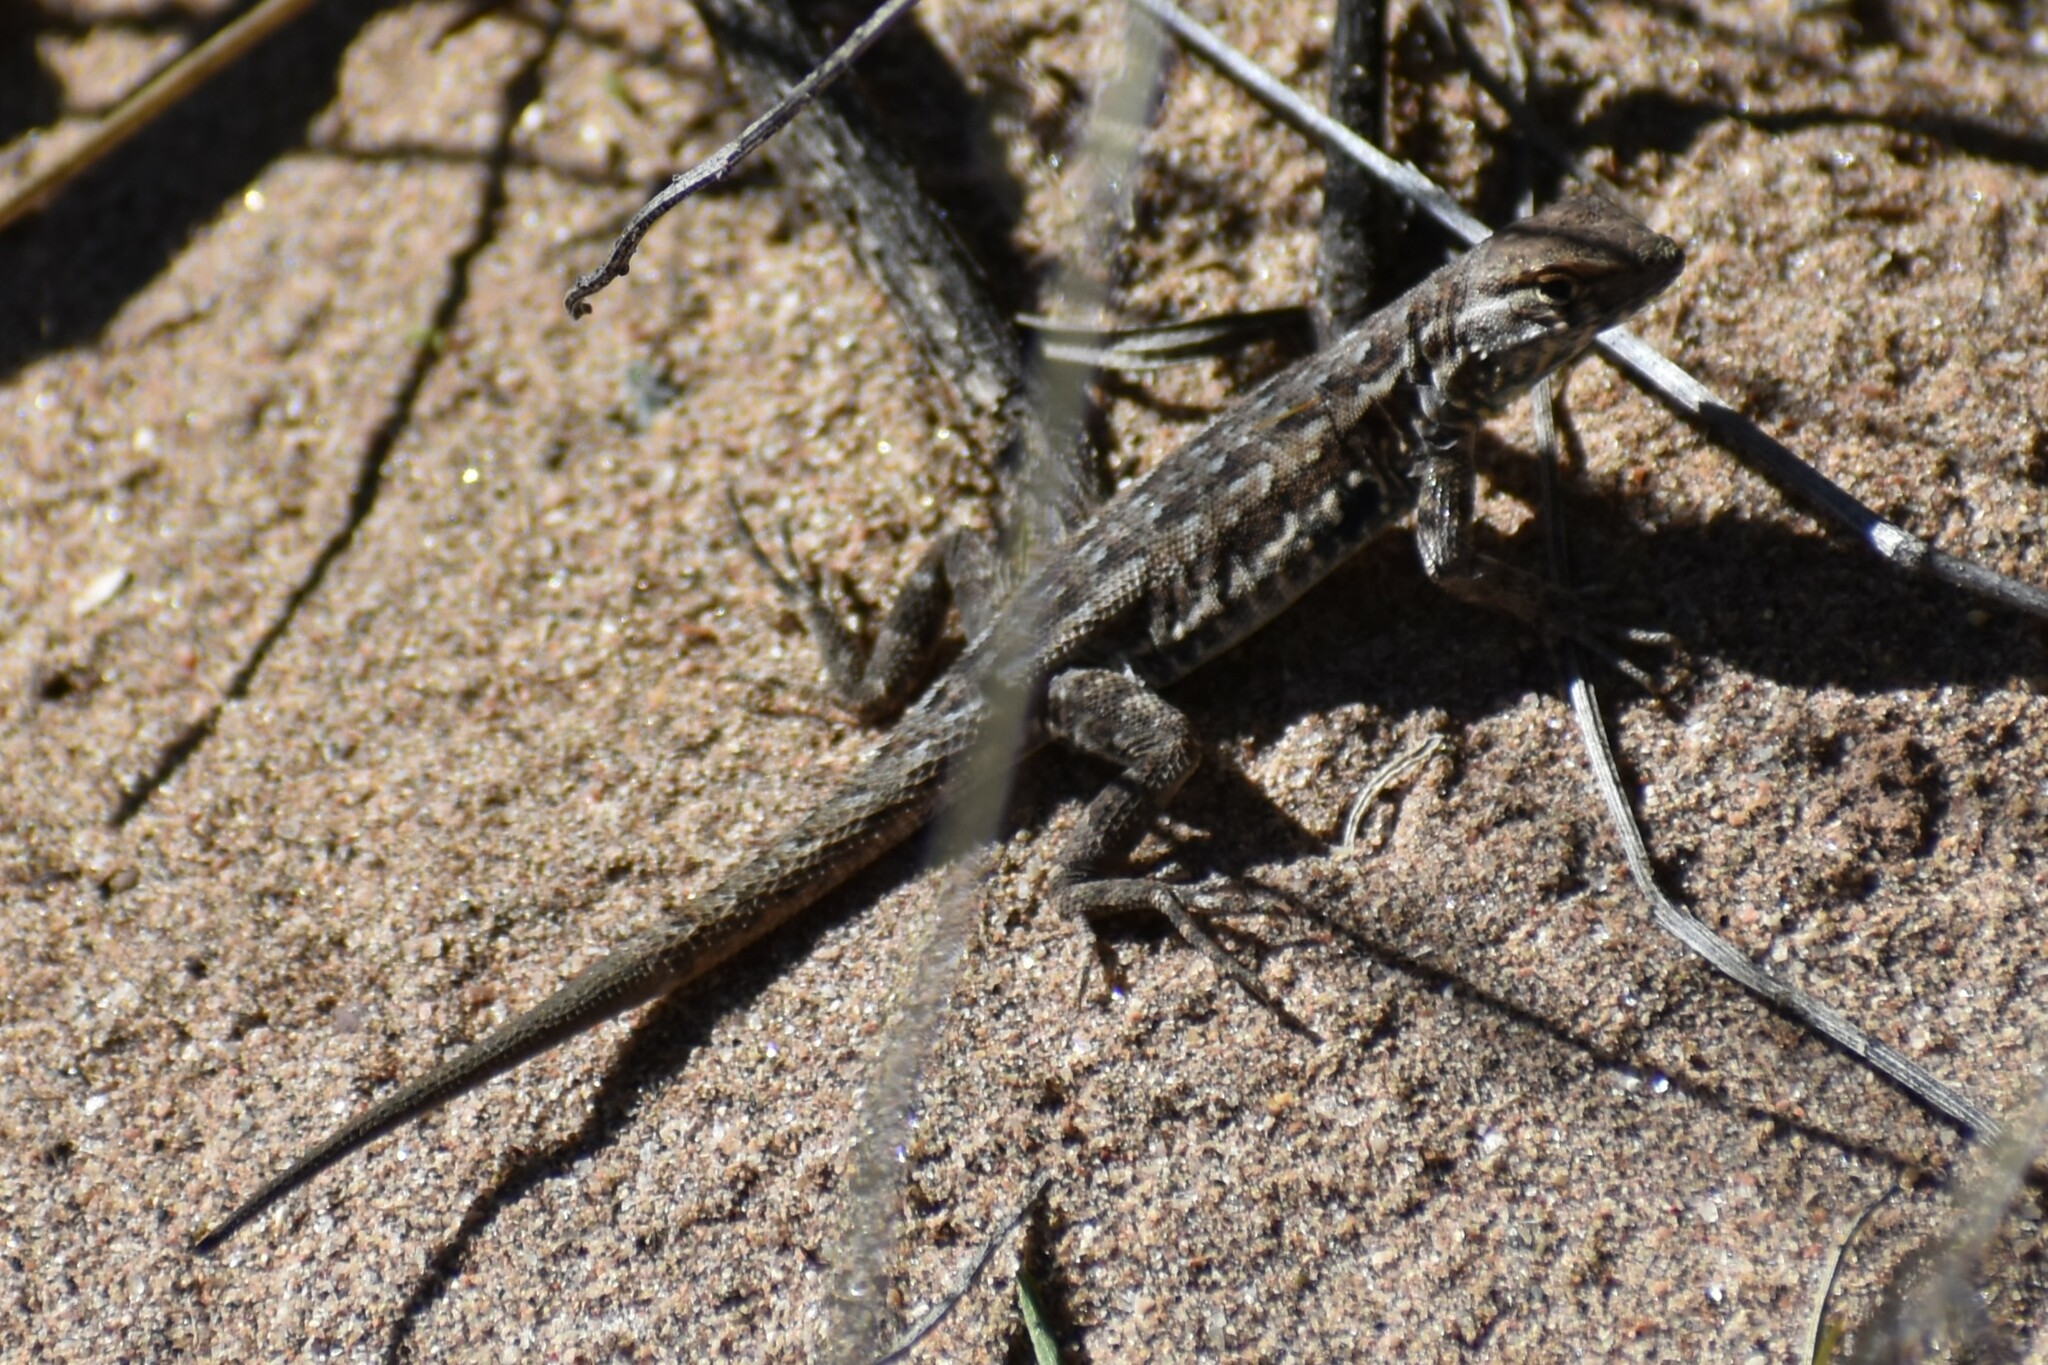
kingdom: Animalia
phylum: Chordata
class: Squamata
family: Phrynosomatidae
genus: Uta
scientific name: Uta stansburiana
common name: Side-blotched lizard
